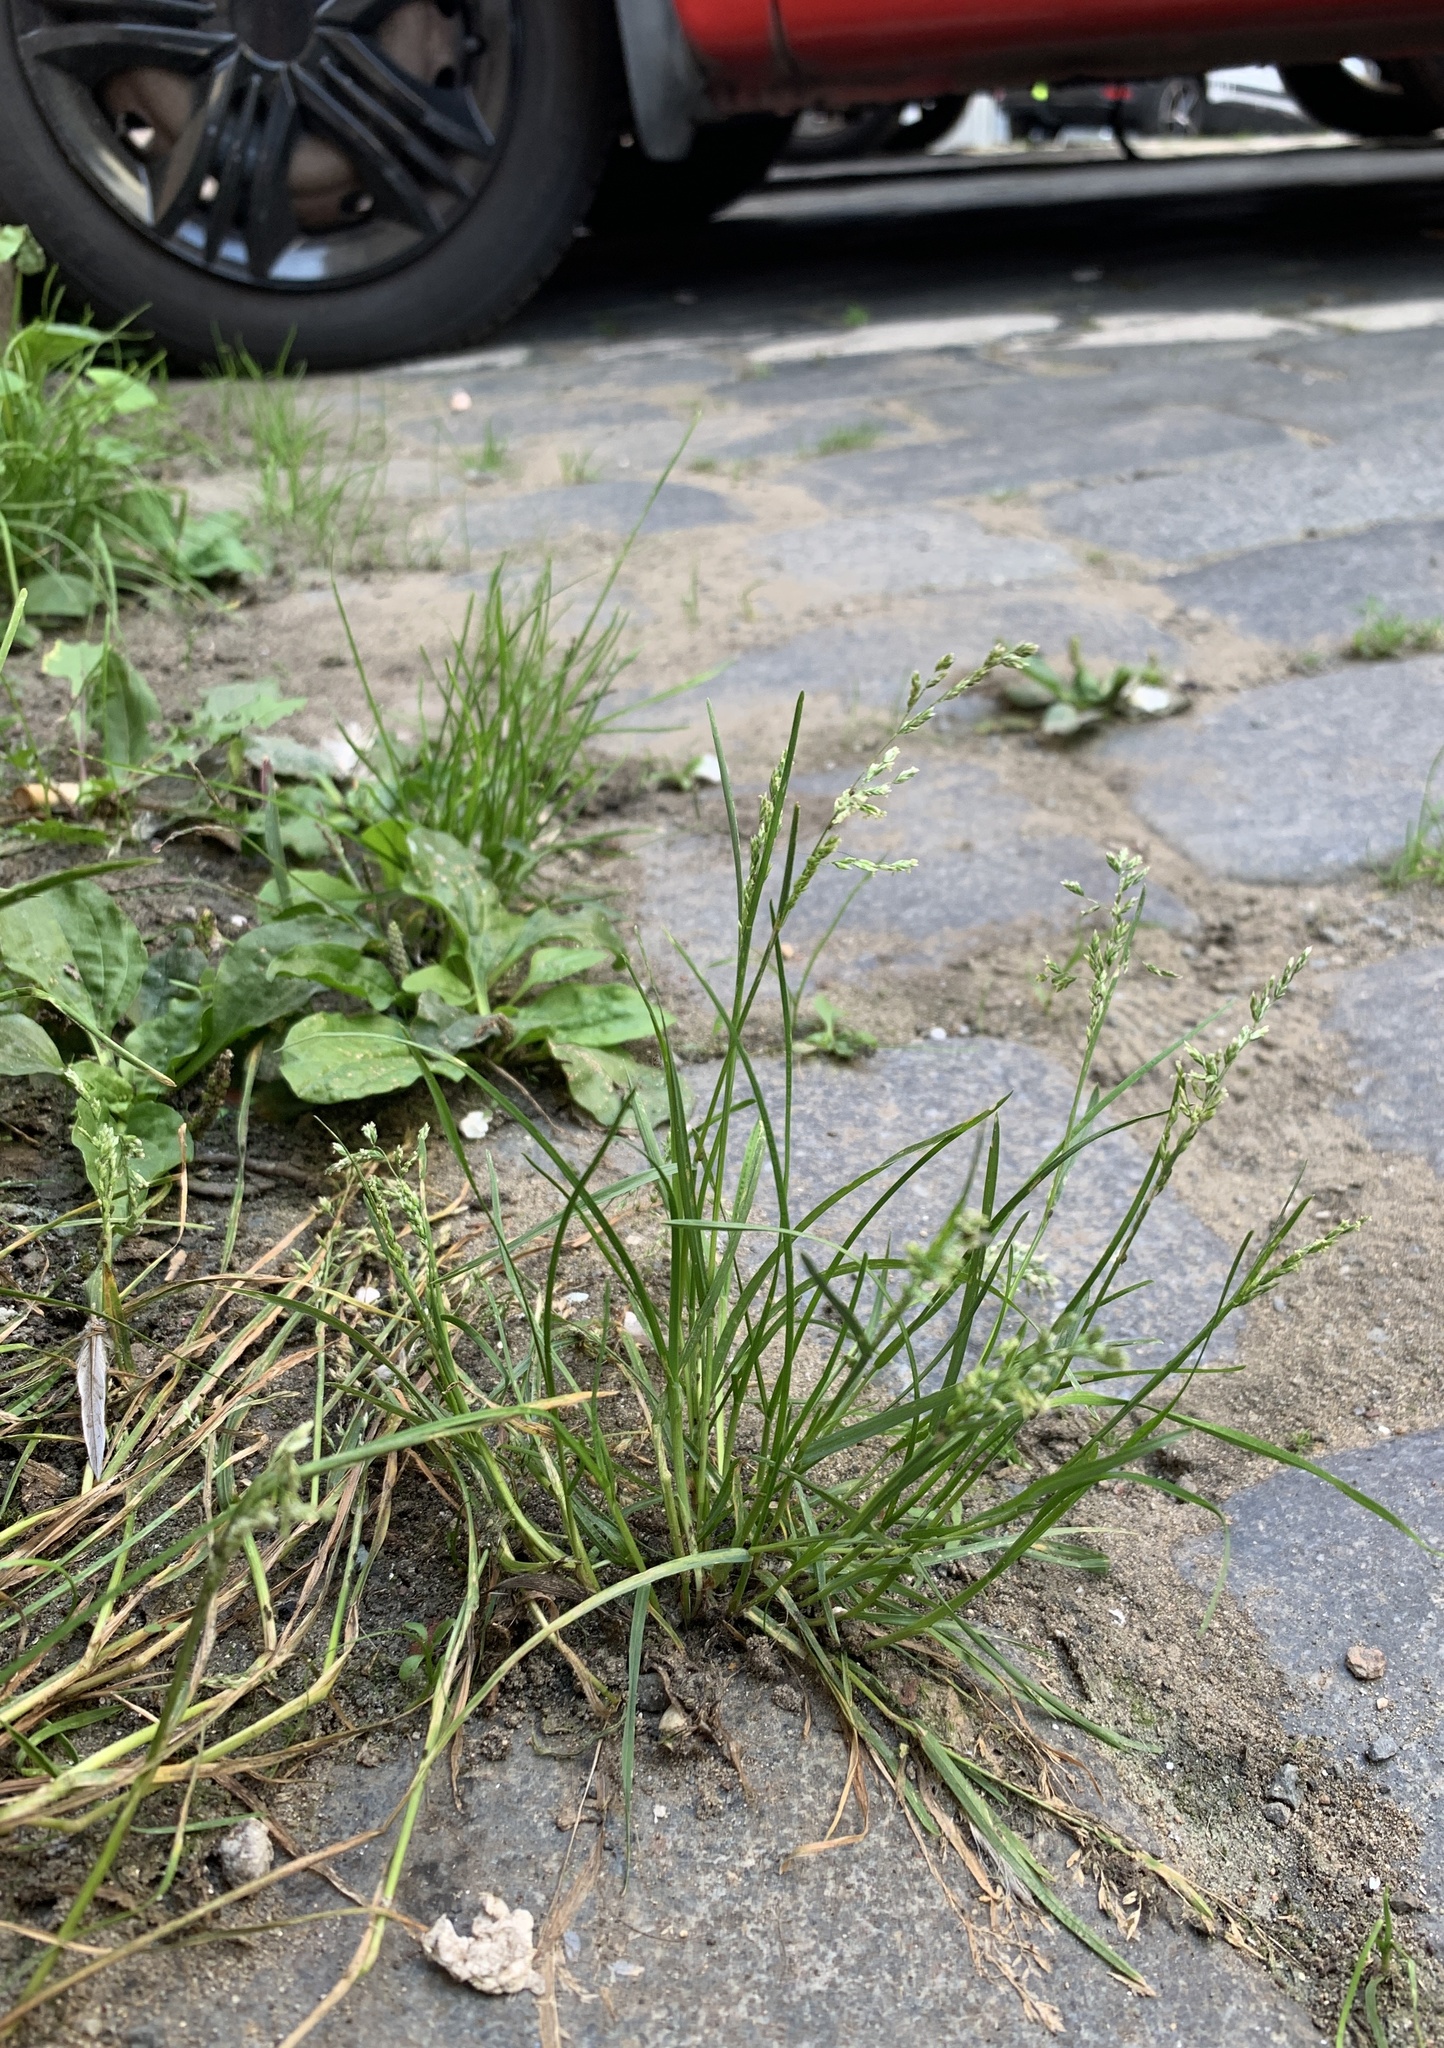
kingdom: Plantae
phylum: Tracheophyta
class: Liliopsida
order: Poales
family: Poaceae
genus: Poa
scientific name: Poa annua
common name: Annual bluegrass
